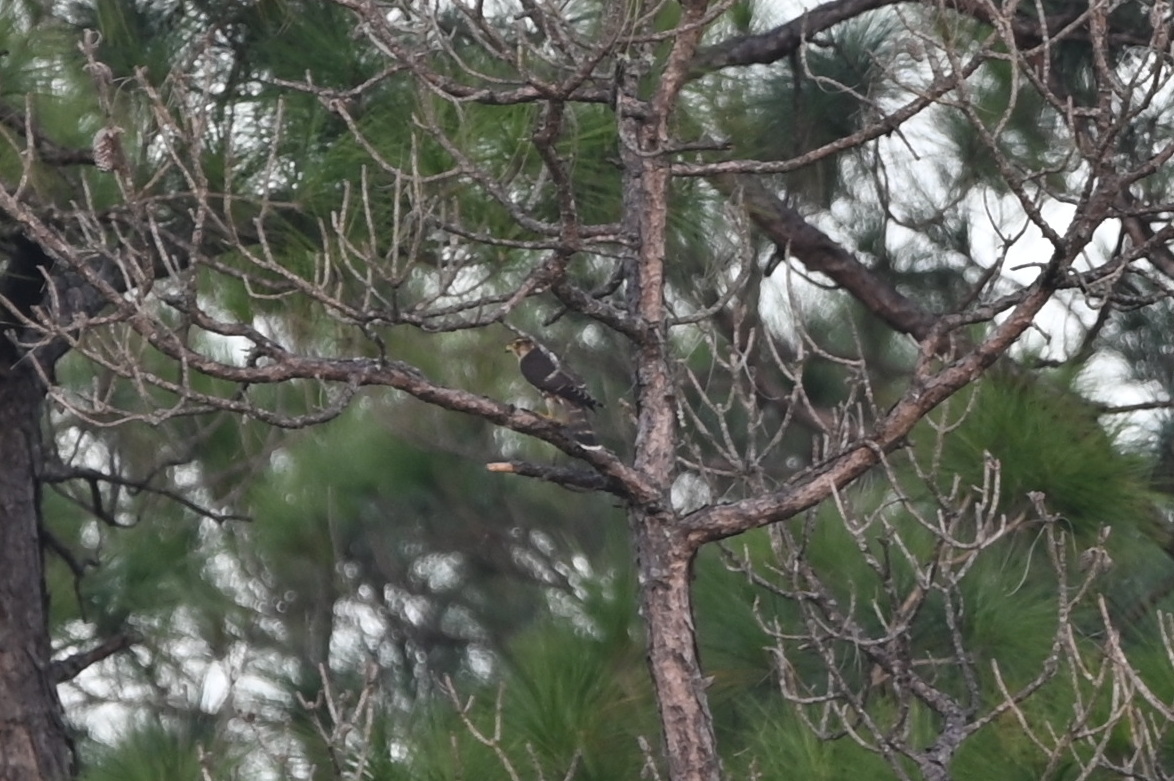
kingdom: Animalia
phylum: Chordata
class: Aves
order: Falconiformes
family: Falconidae
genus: Falco
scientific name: Falco columbarius
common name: Merlin
